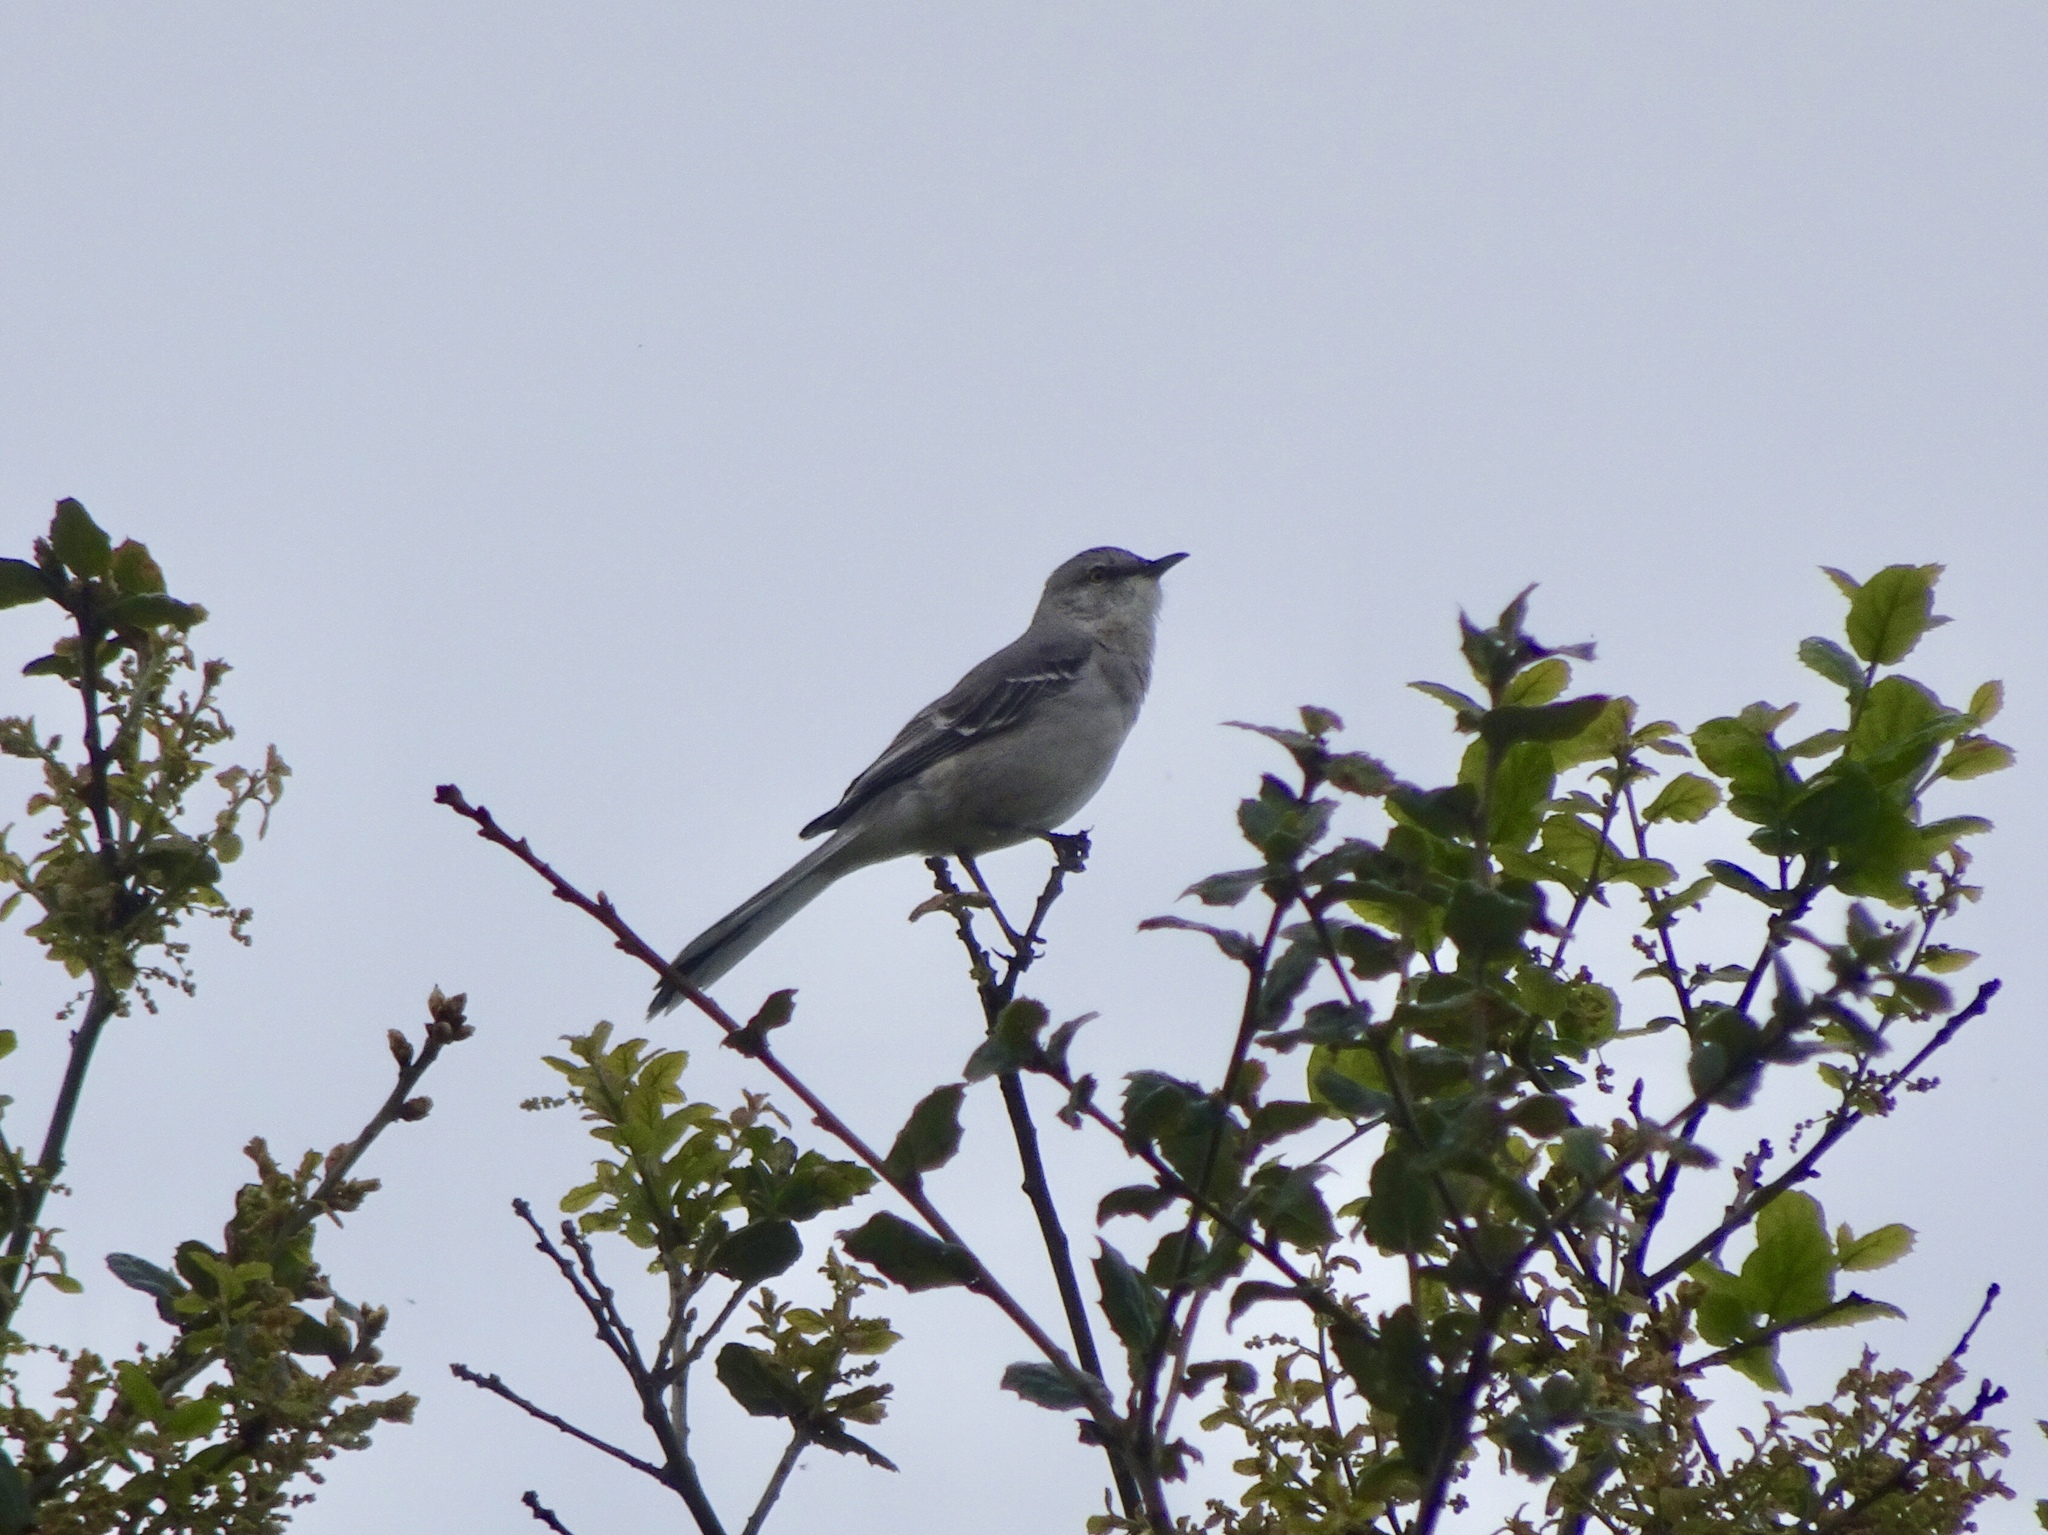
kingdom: Animalia
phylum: Chordata
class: Aves
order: Passeriformes
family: Mimidae
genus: Mimus
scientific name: Mimus polyglottos
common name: Northern mockingbird
